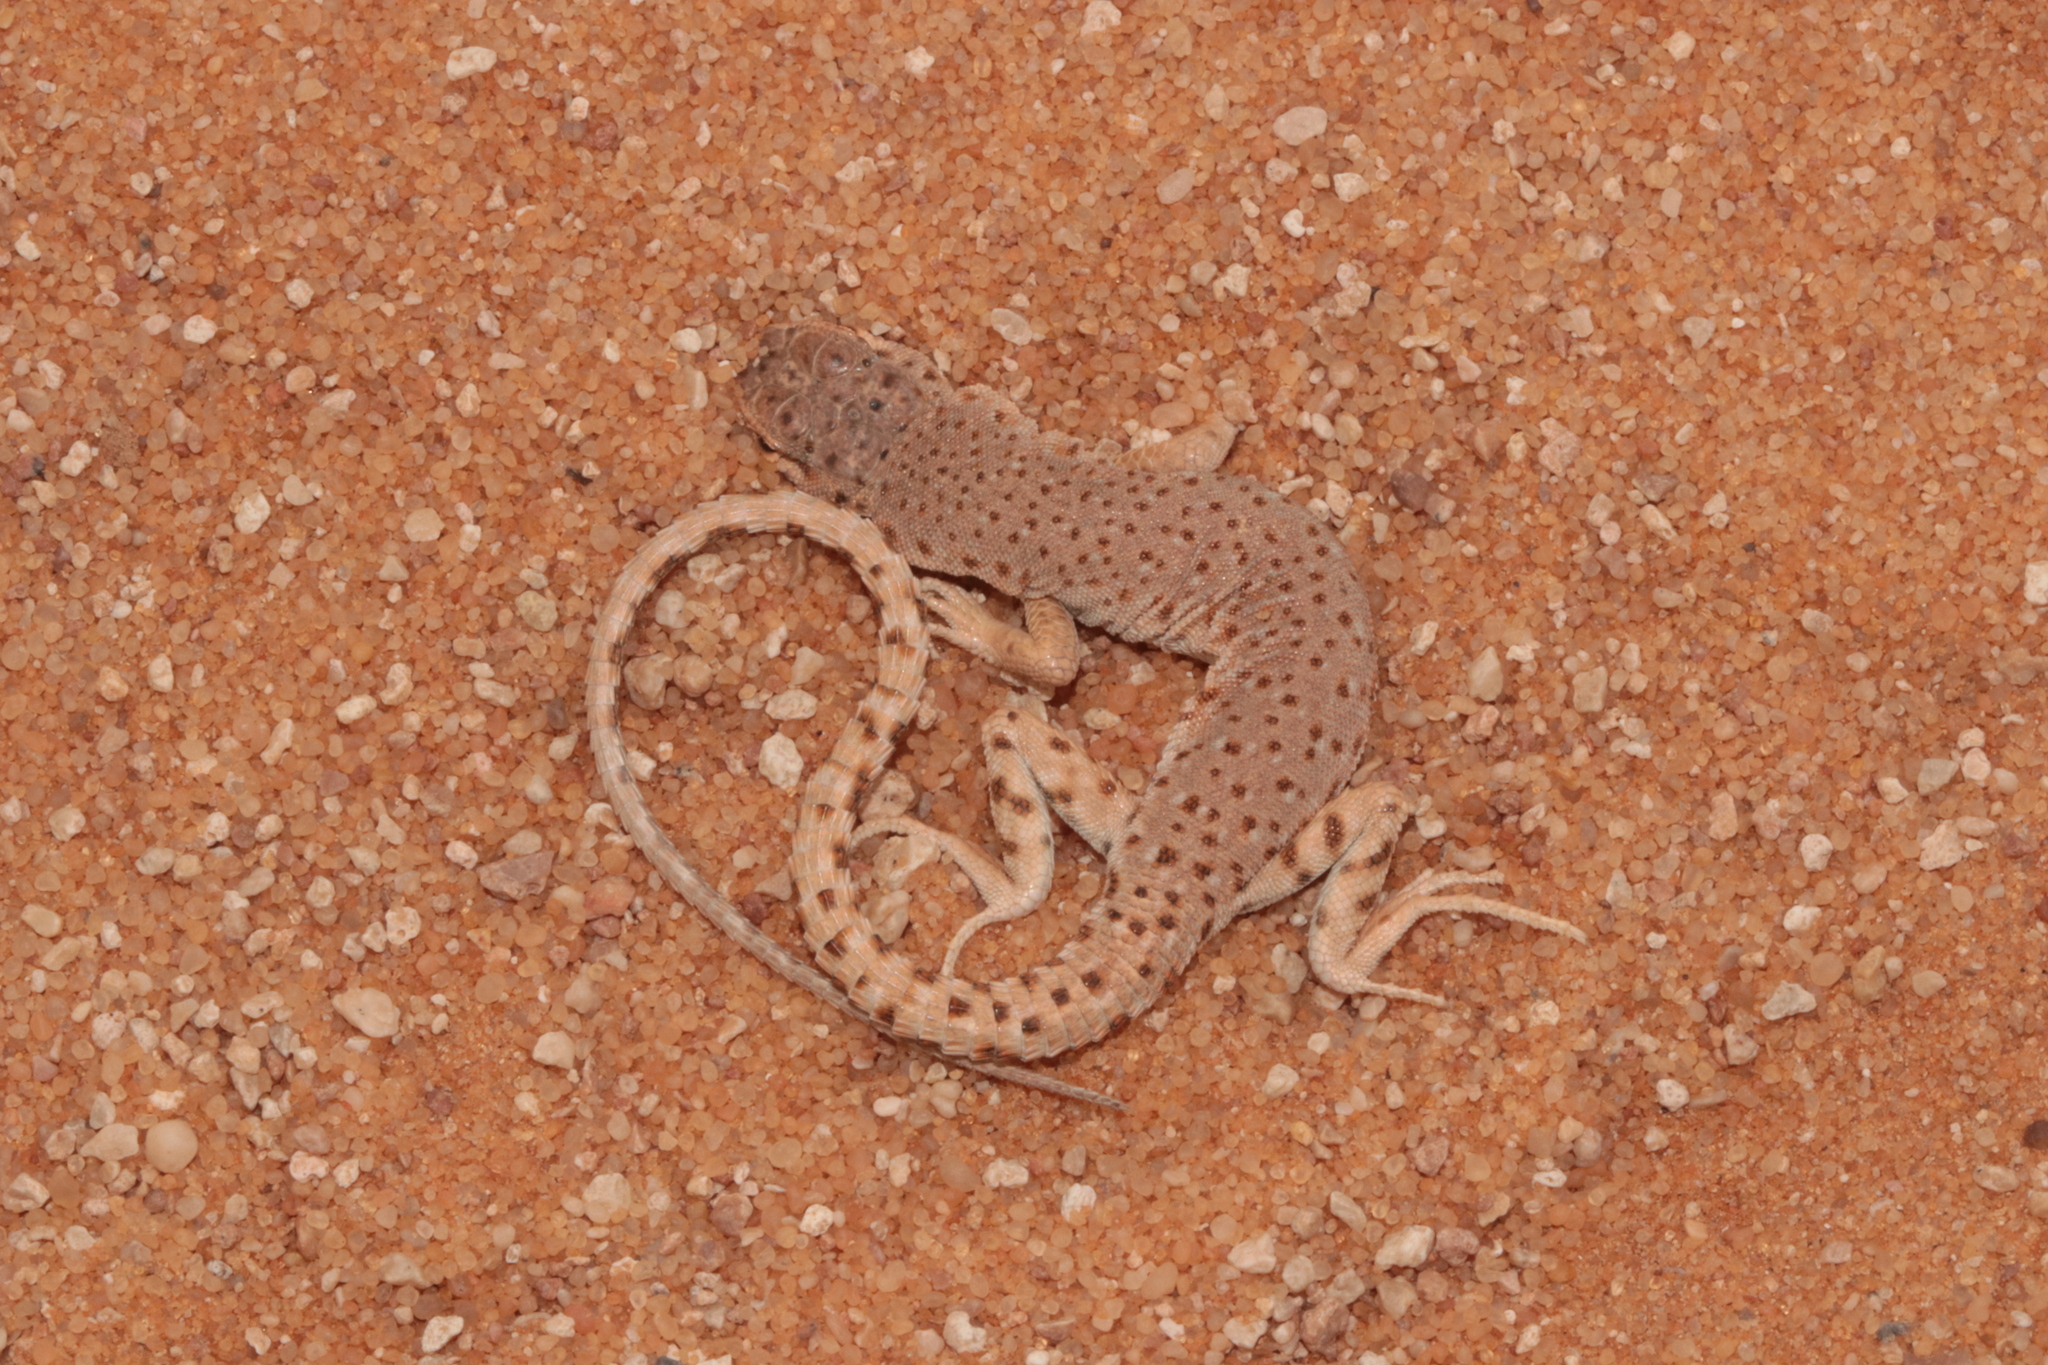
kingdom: Animalia
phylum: Chordata
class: Squamata
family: Lacertidae
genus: Mesalina
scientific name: Mesalina brevirostris
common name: Blanford's short-nosed desert lizard
